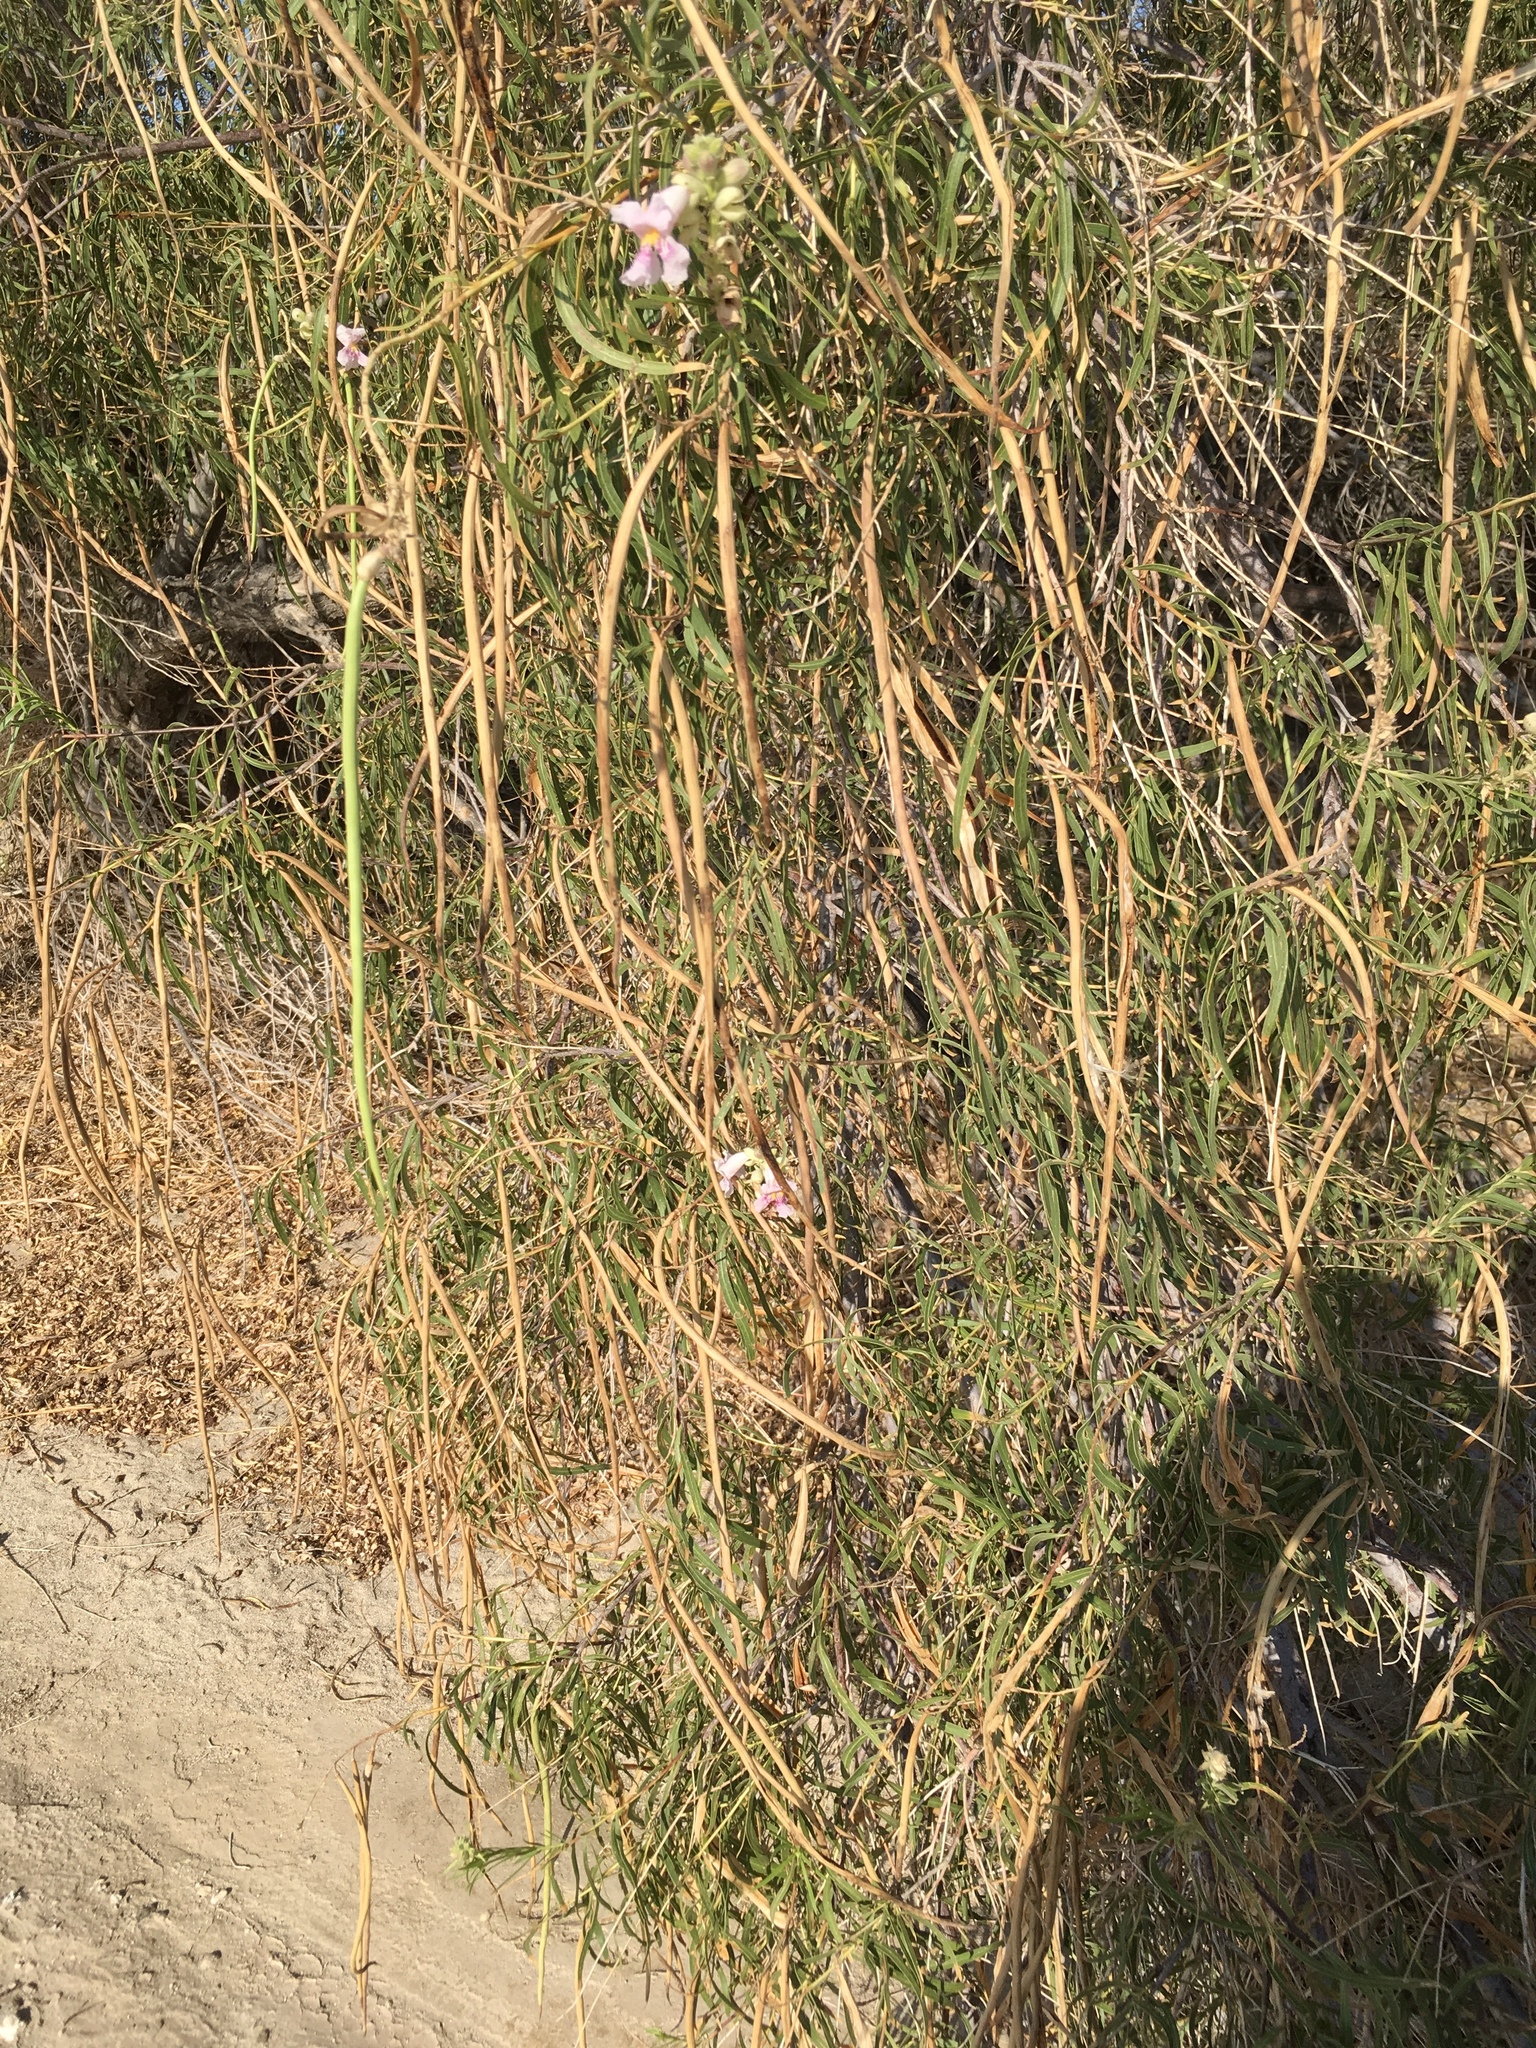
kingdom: Plantae
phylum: Tracheophyta
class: Magnoliopsida
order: Lamiales
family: Bignoniaceae
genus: Chilopsis
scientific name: Chilopsis linearis
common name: Desert-willow
